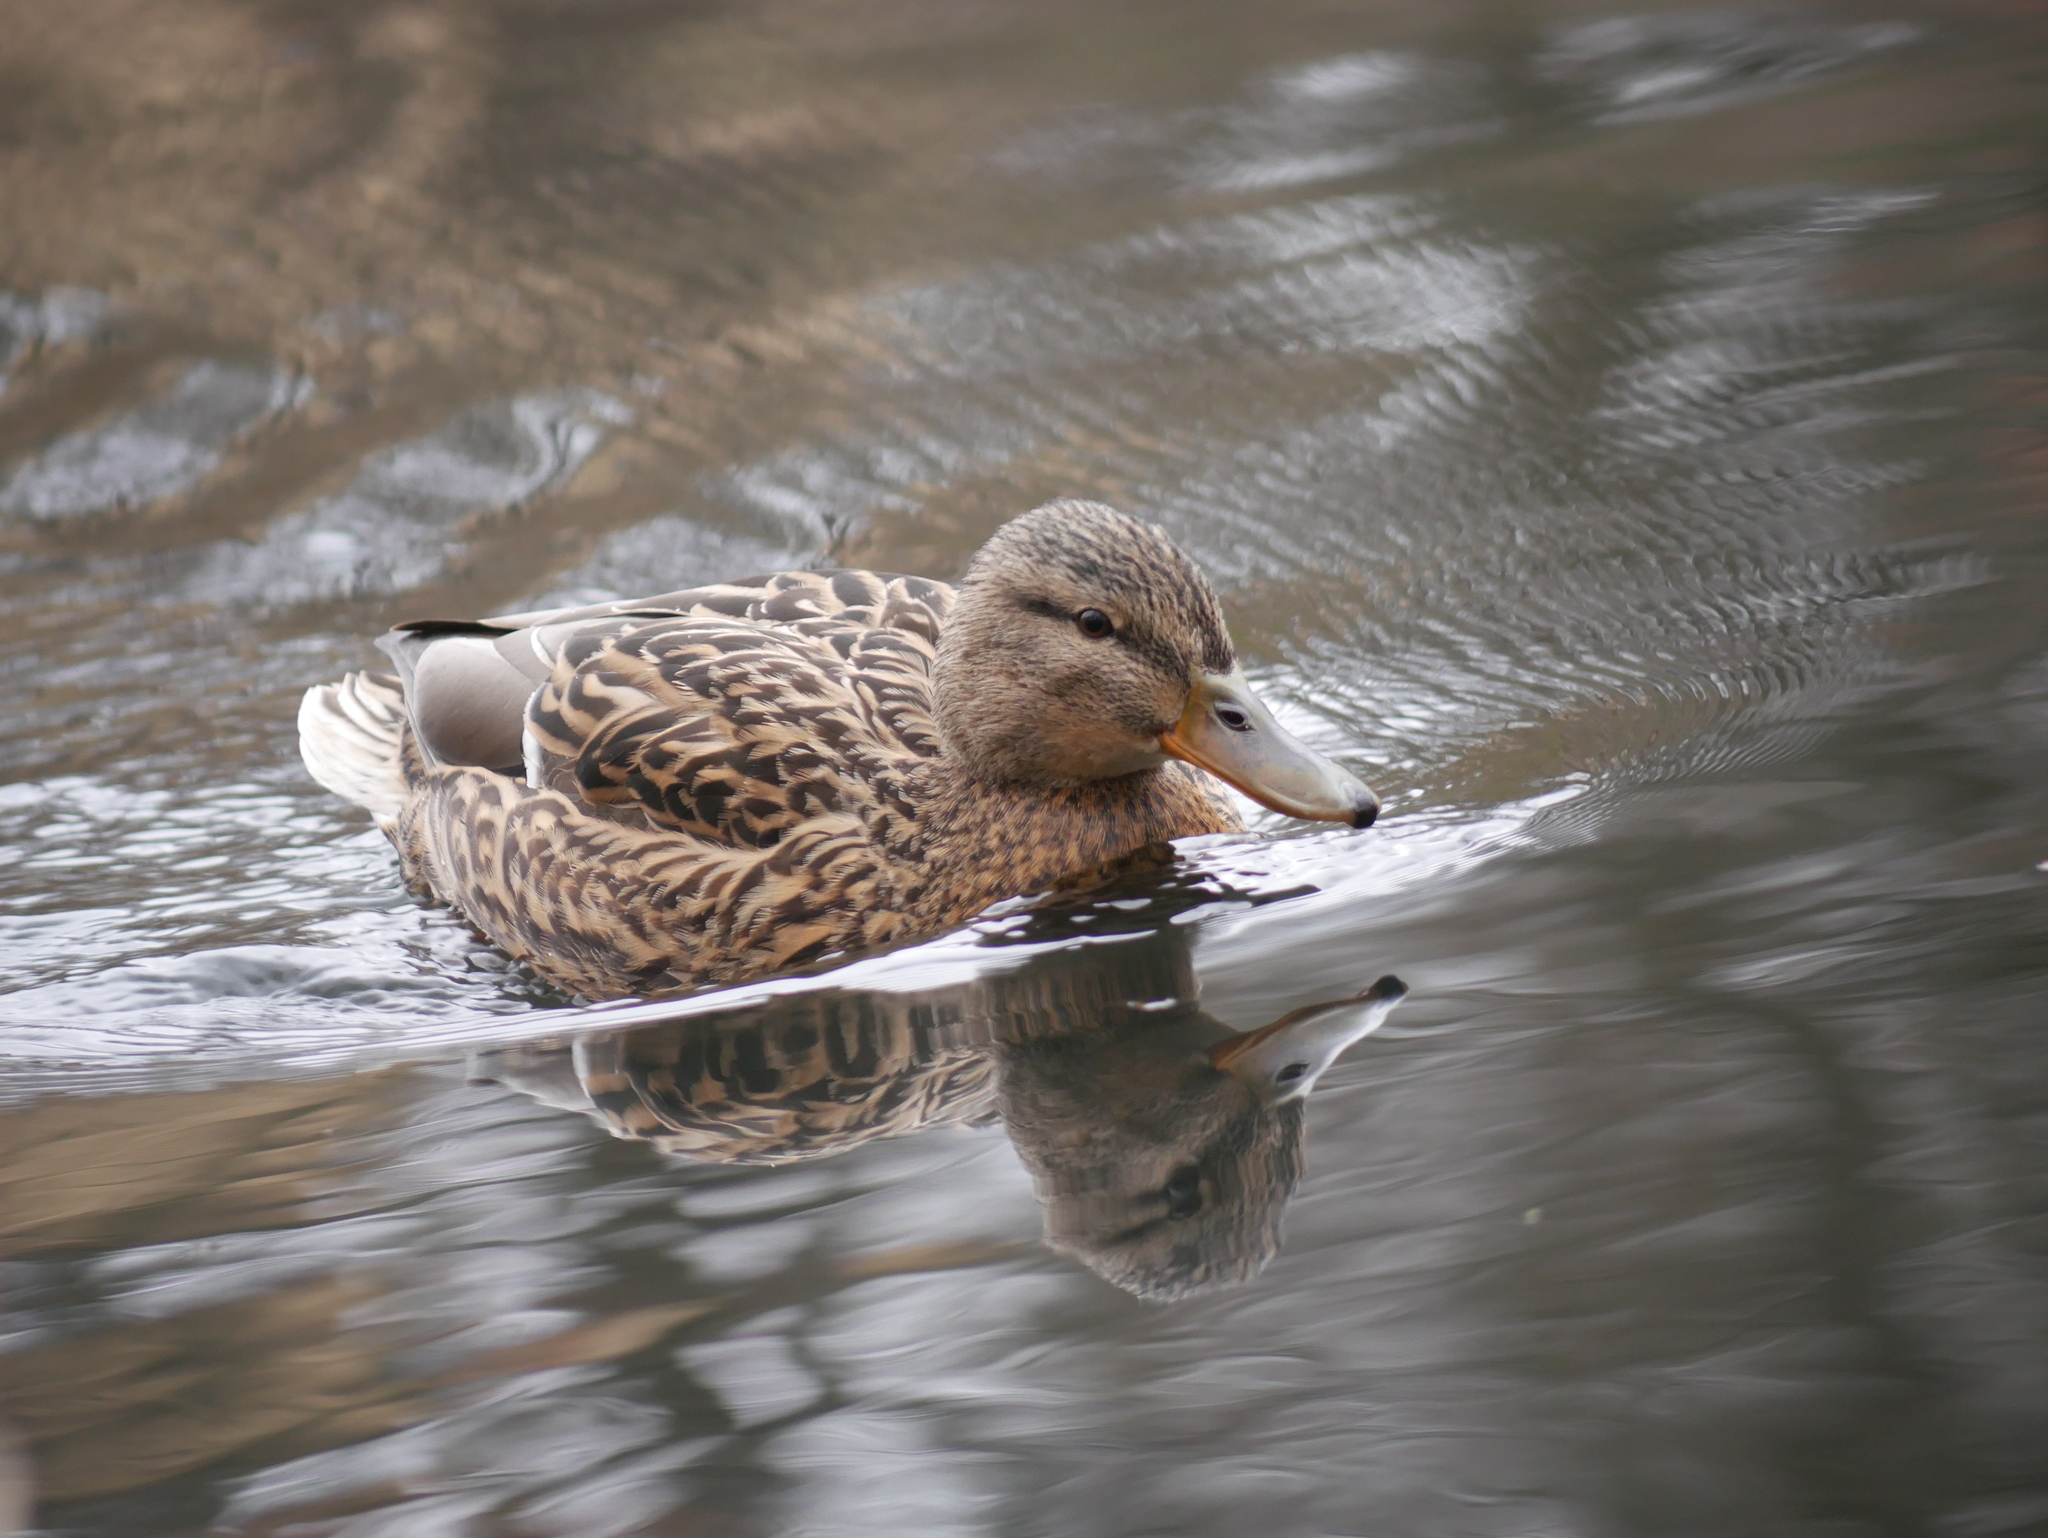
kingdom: Animalia
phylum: Chordata
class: Aves
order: Anseriformes
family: Anatidae
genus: Anas
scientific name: Anas platyrhynchos
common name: Mallard
